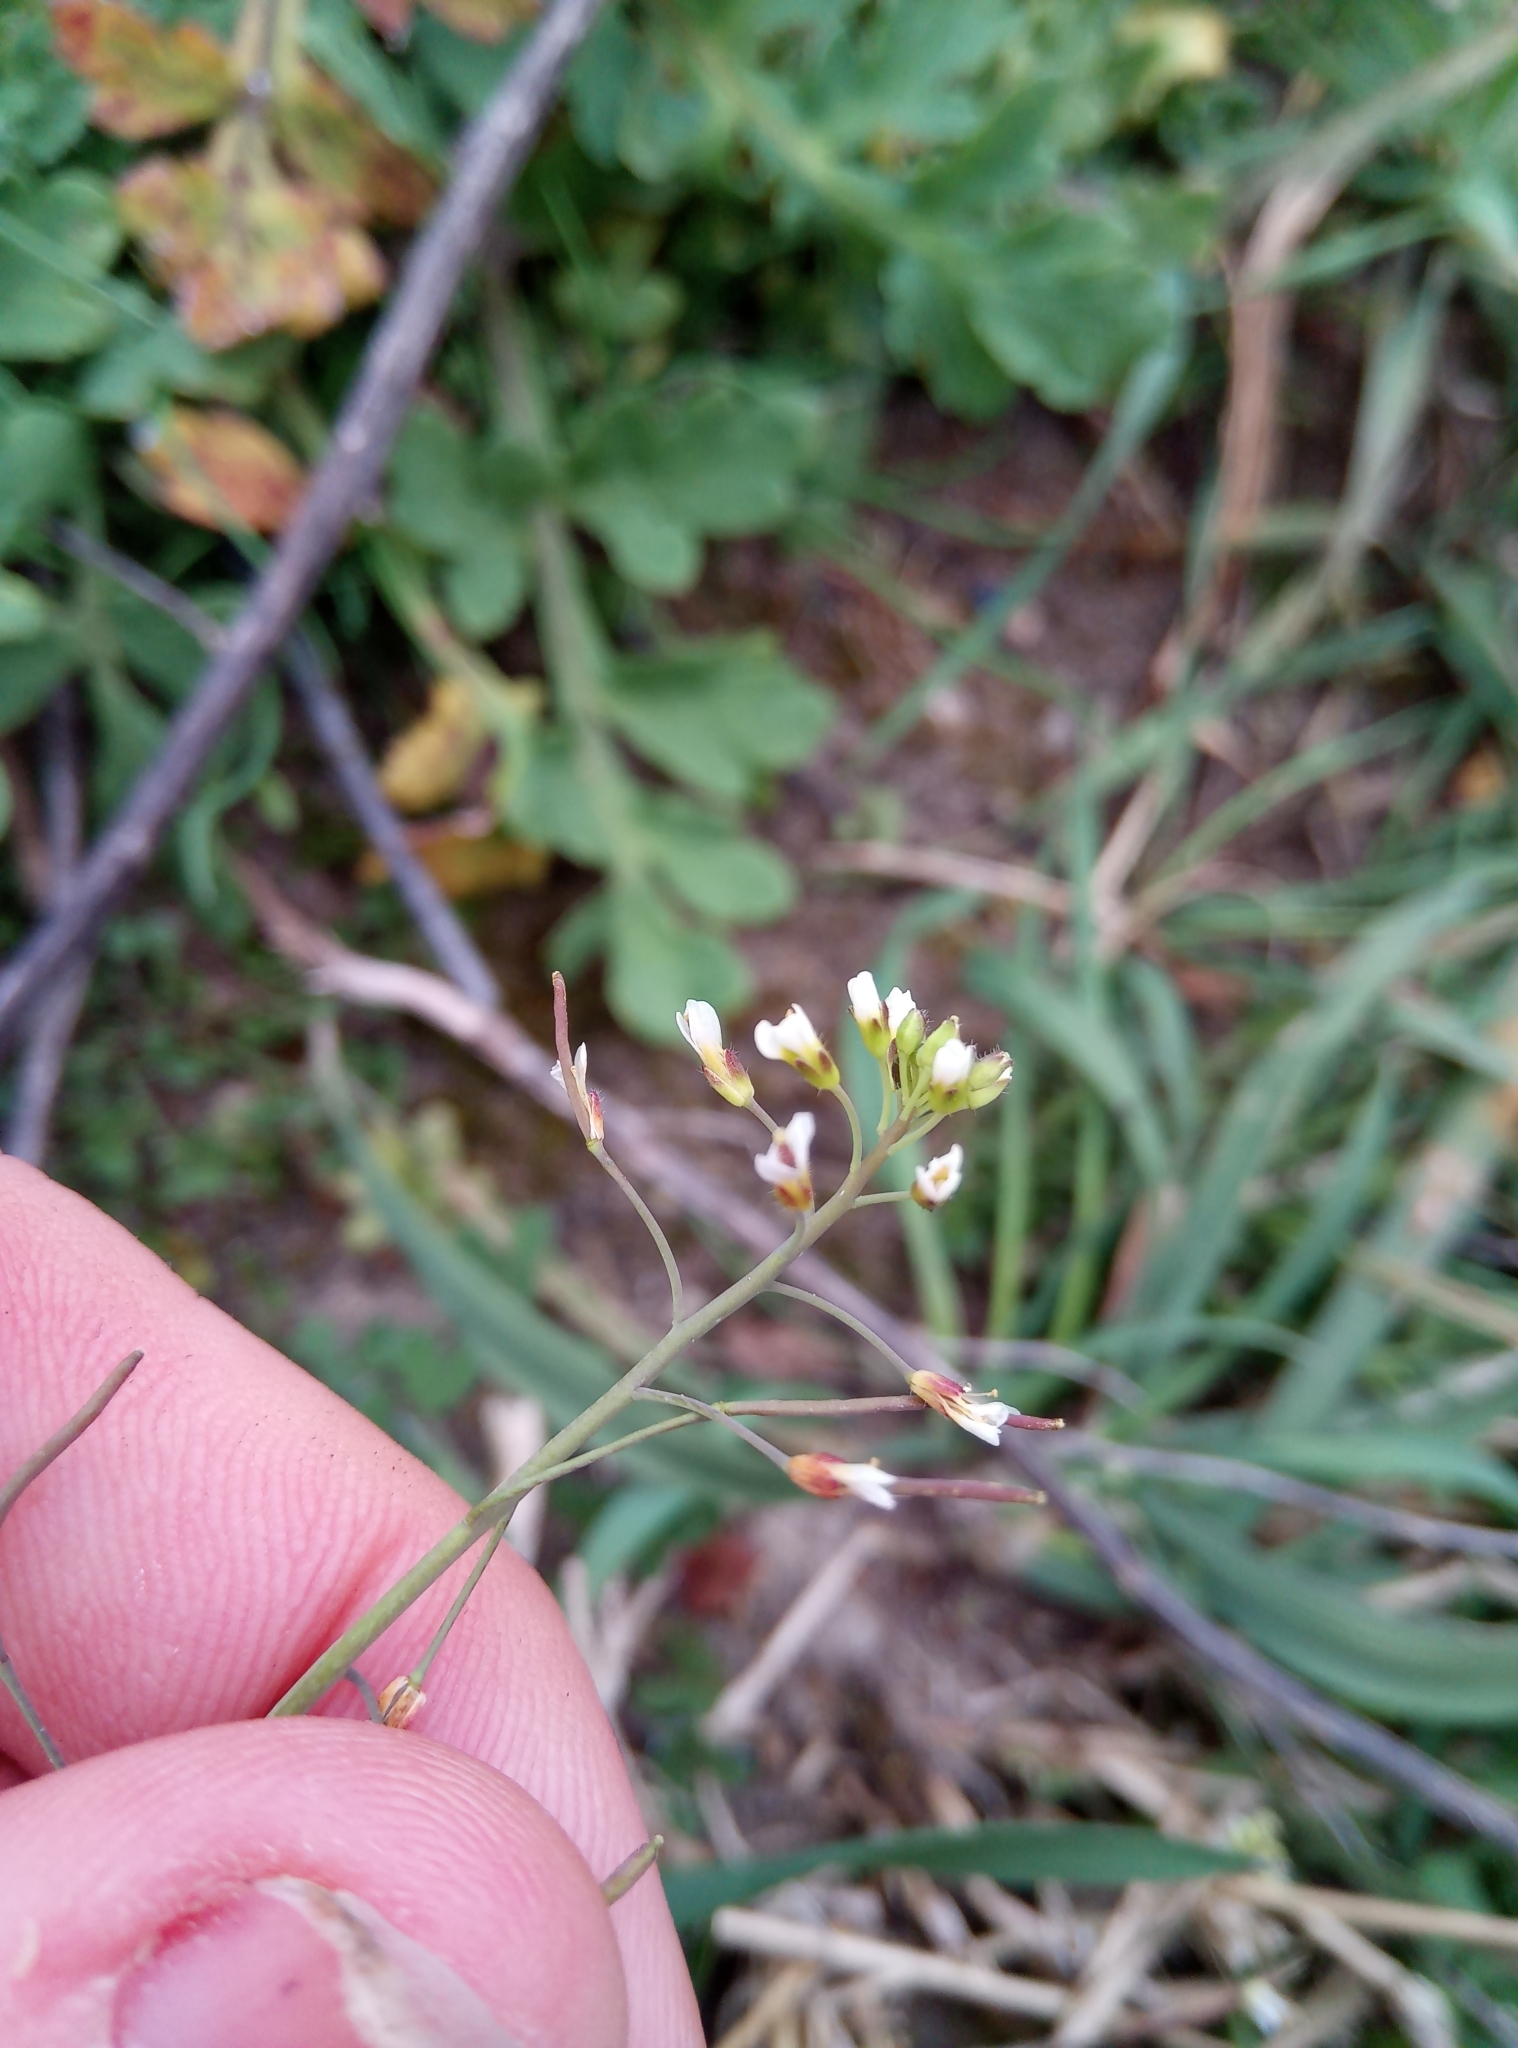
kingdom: Plantae
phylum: Tracheophyta
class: Magnoliopsida
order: Brassicales
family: Brassicaceae
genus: Arabidopsis
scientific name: Arabidopsis thaliana
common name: Thale cress
